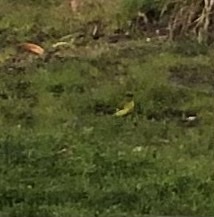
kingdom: Animalia
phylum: Chordata
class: Aves
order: Passeriformes
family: Fringillidae
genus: Spinus
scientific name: Spinus psaltria
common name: Lesser goldfinch
